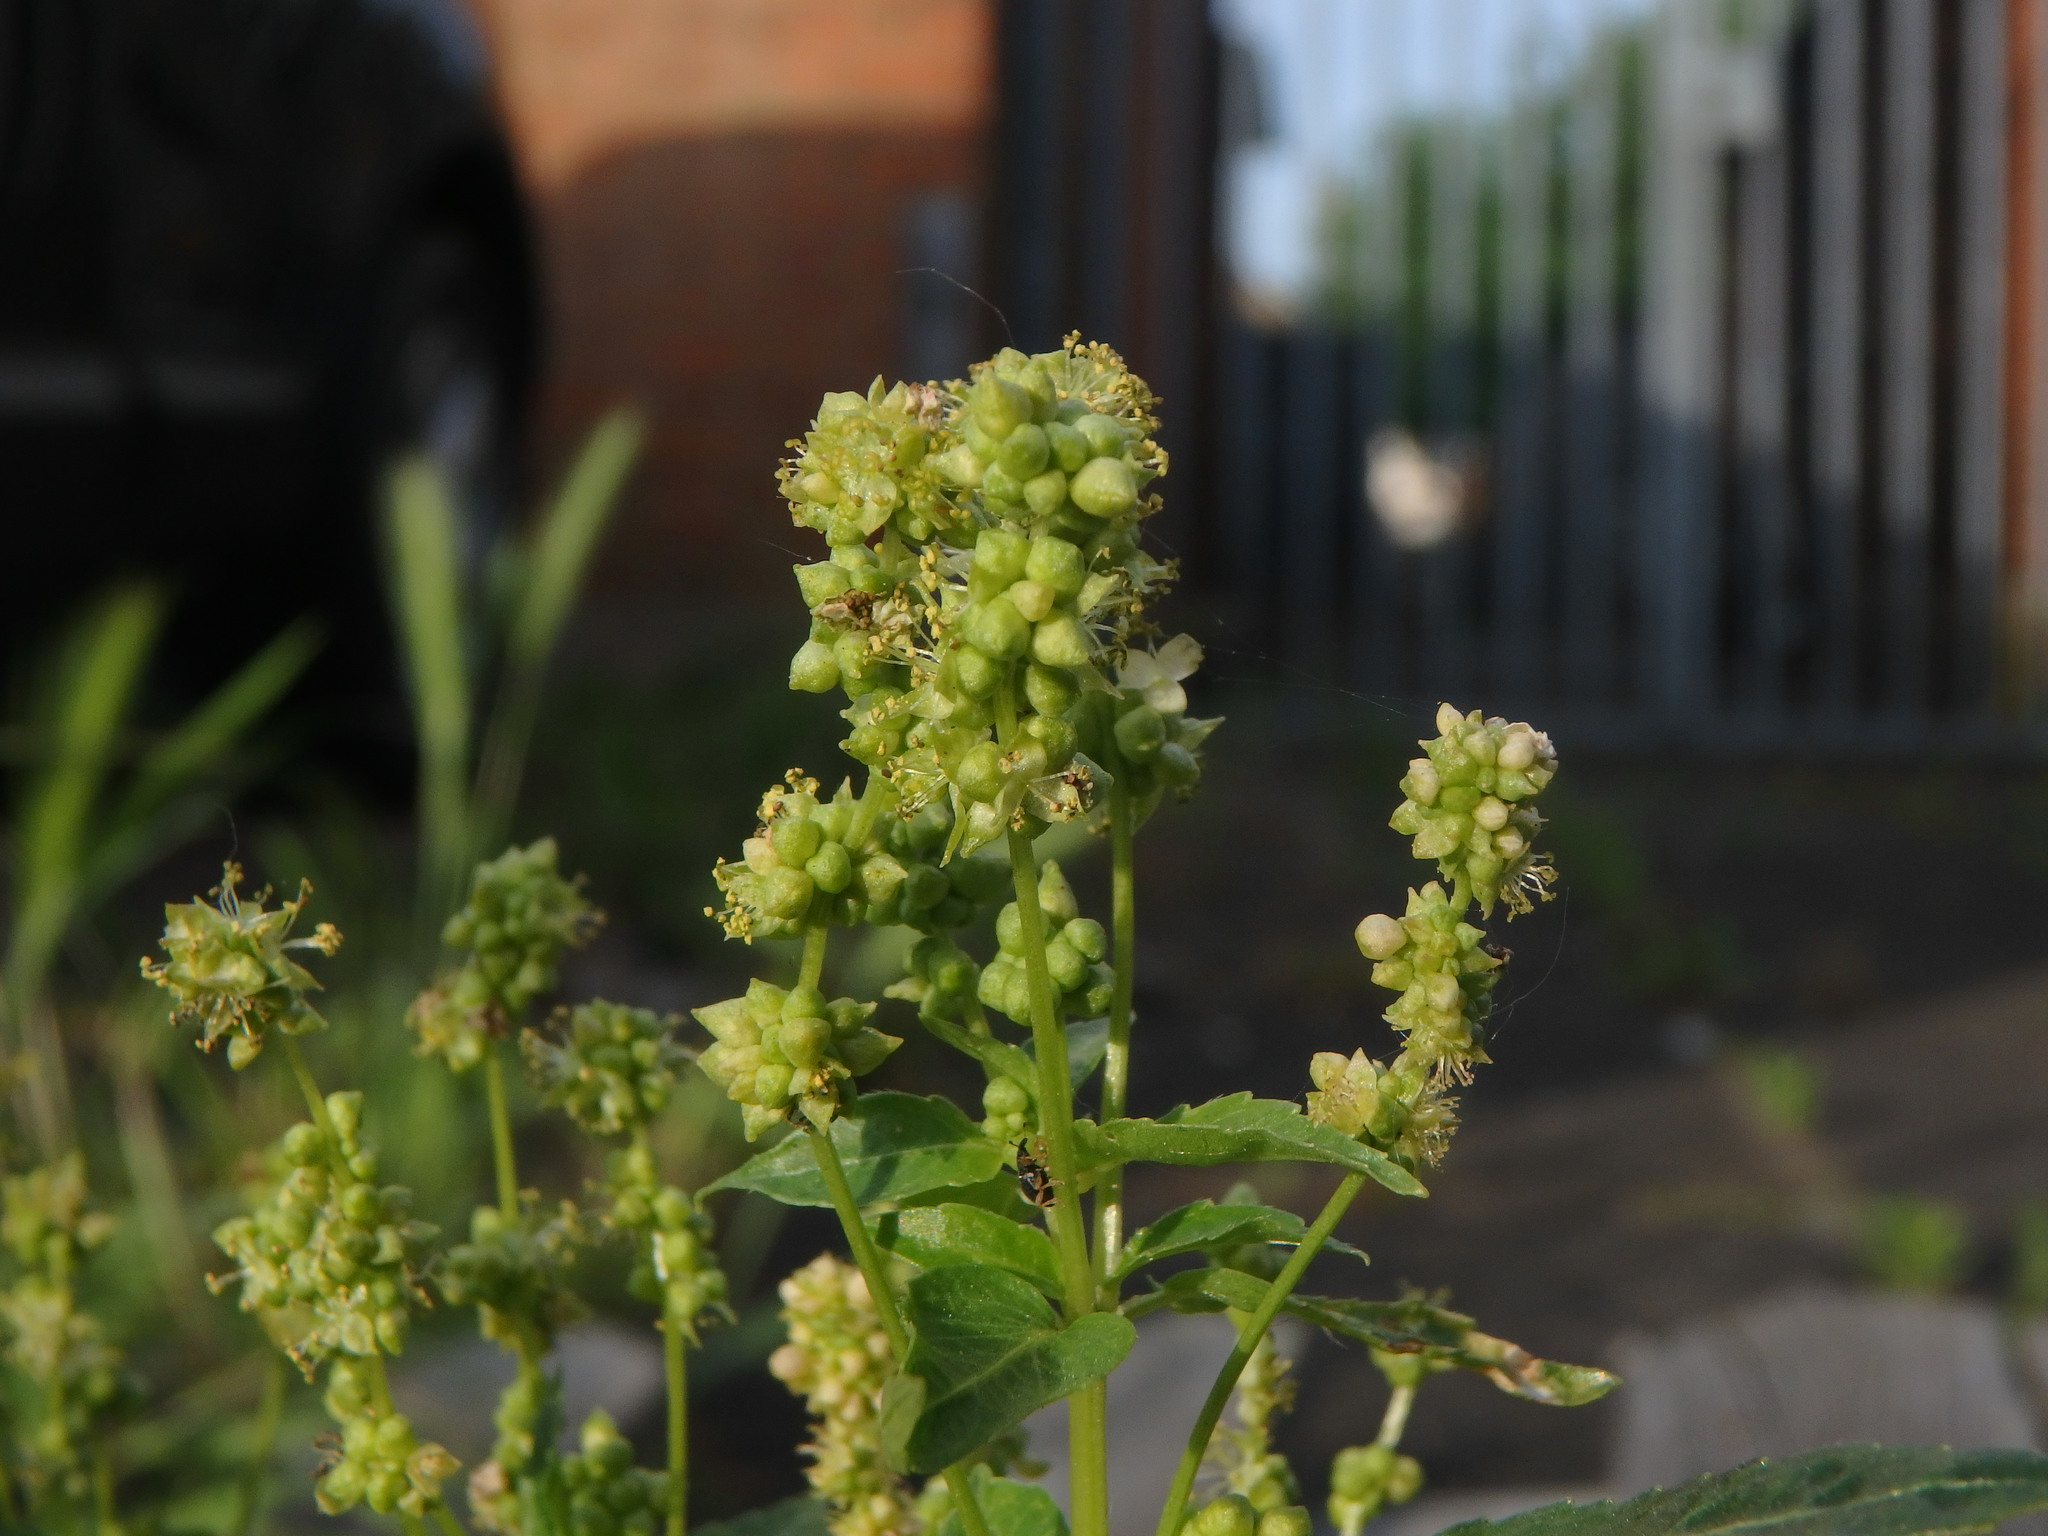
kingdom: Plantae
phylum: Tracheophyta
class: Magnoliopsida
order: Malpighiales
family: Euphorbiaceae
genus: Mercurialis
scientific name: Mercurialis annua
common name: Annual mercury
